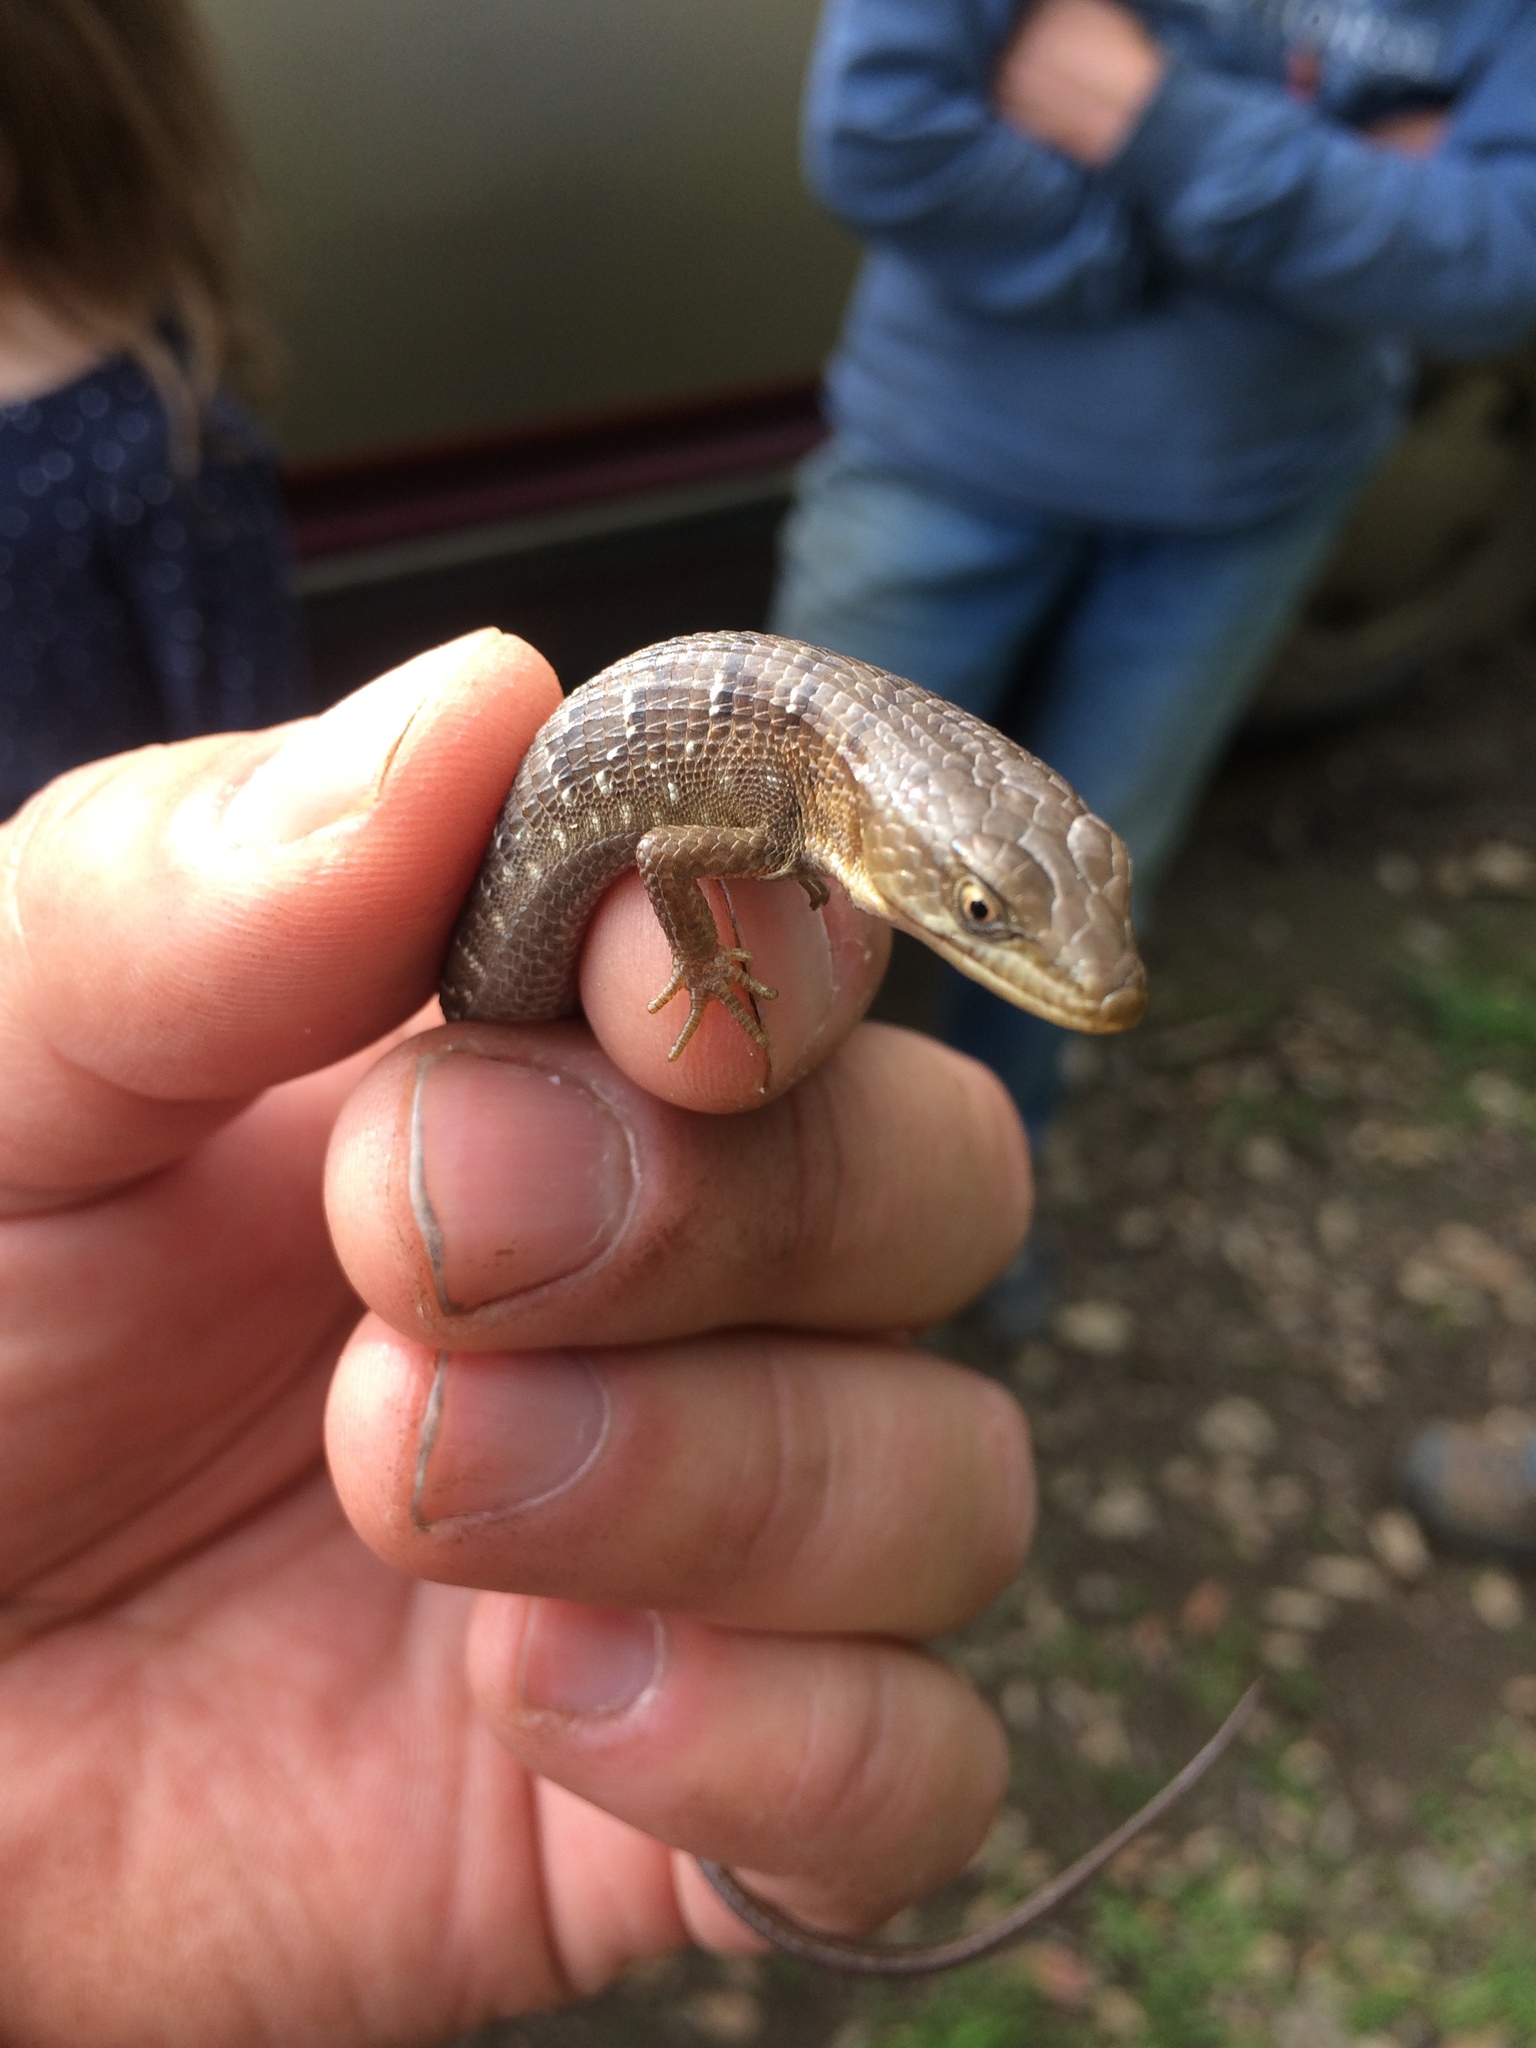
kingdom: Animalia
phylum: Chordata
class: Squamata
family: Anguidae
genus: Elgaria
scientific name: Elgaria multicarinata
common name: Southern alligator lizard
